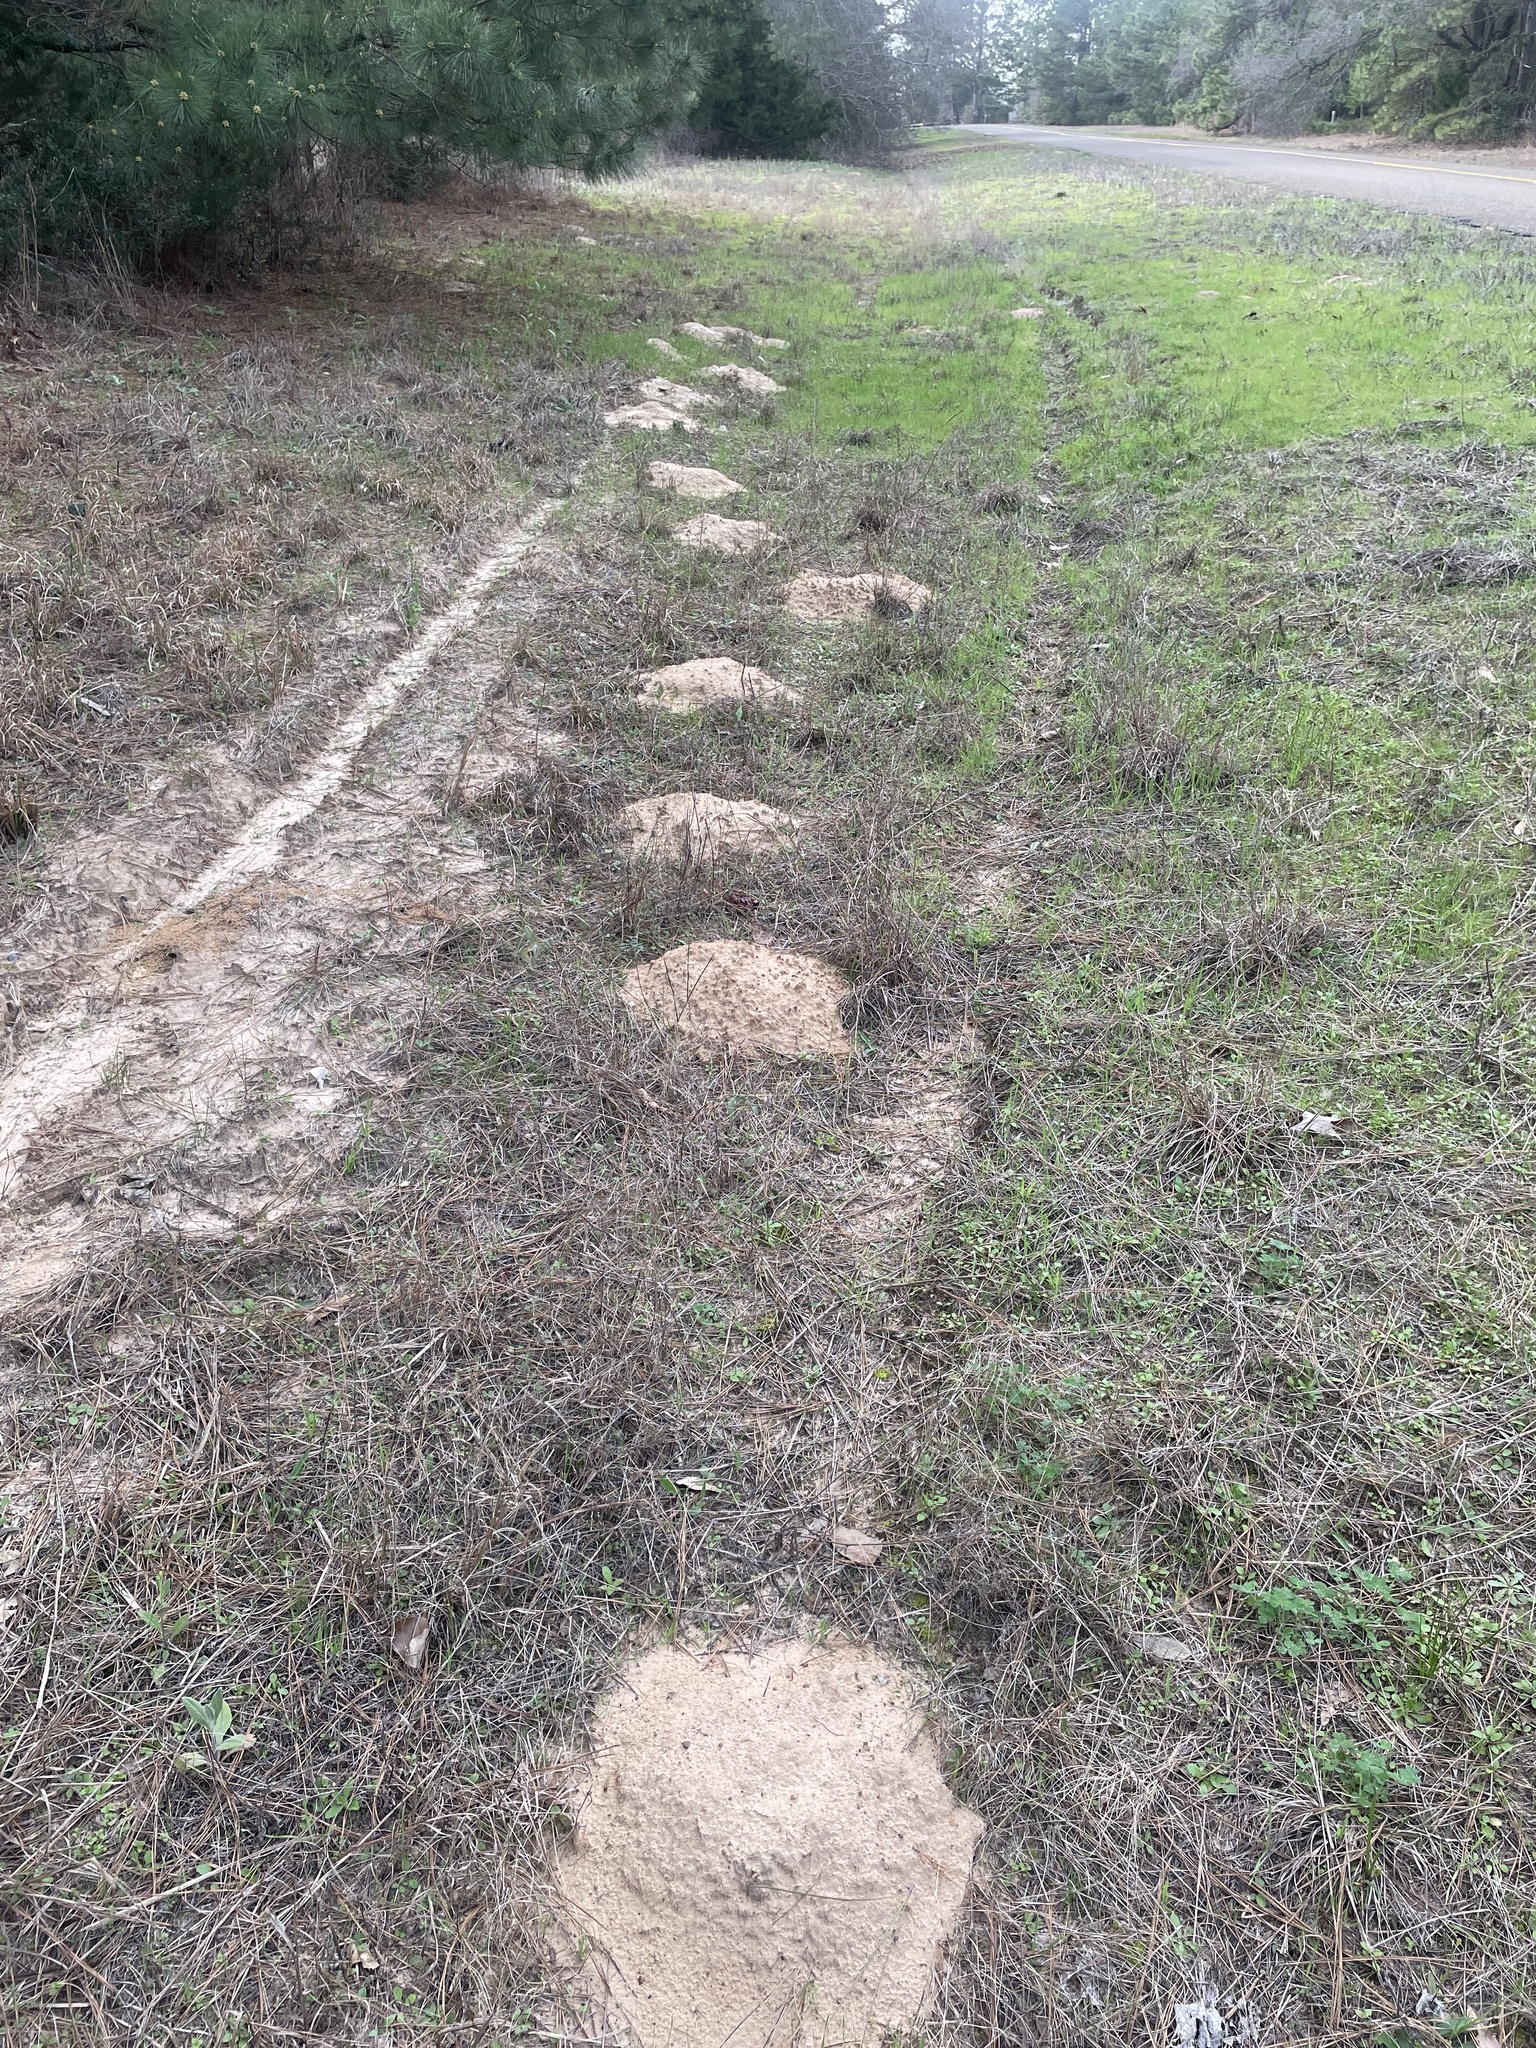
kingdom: Animalia
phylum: Chordata
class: Mammalia
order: Rodentia
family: Geomyidae
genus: Geomys
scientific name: Geomys breviceps
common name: Baird's pocket gopher
